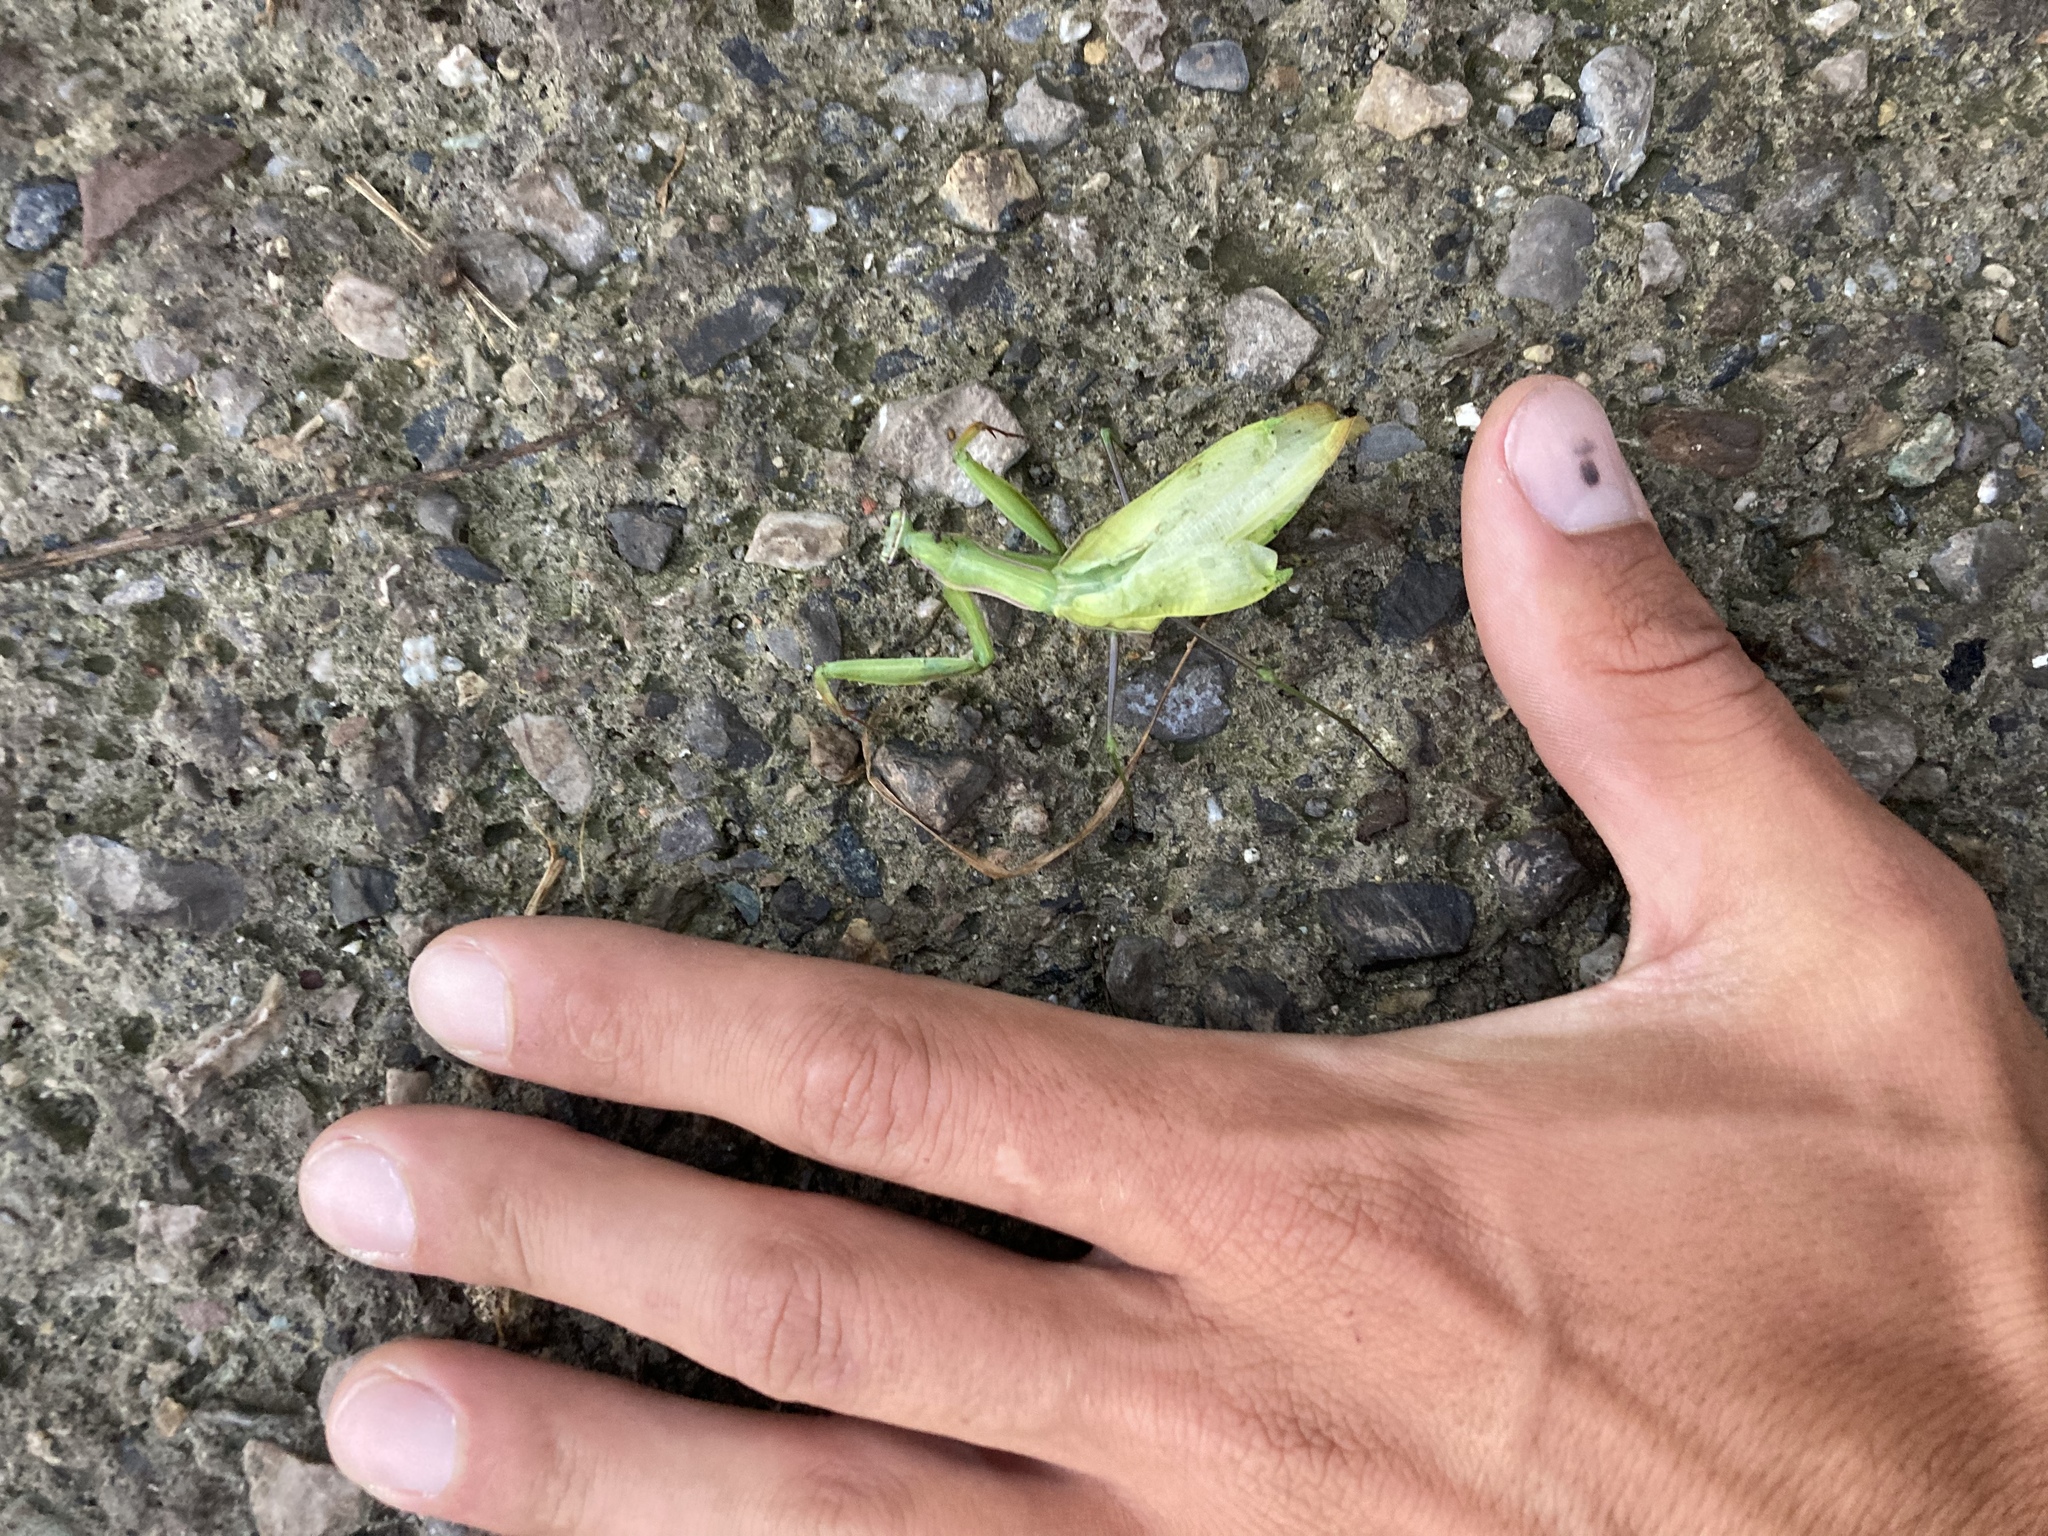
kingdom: Animalia
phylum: Arthropoda
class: Insecta
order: Mantodea
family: Mantidae
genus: Mantis
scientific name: Mantis religiosa
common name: Praying mantis
